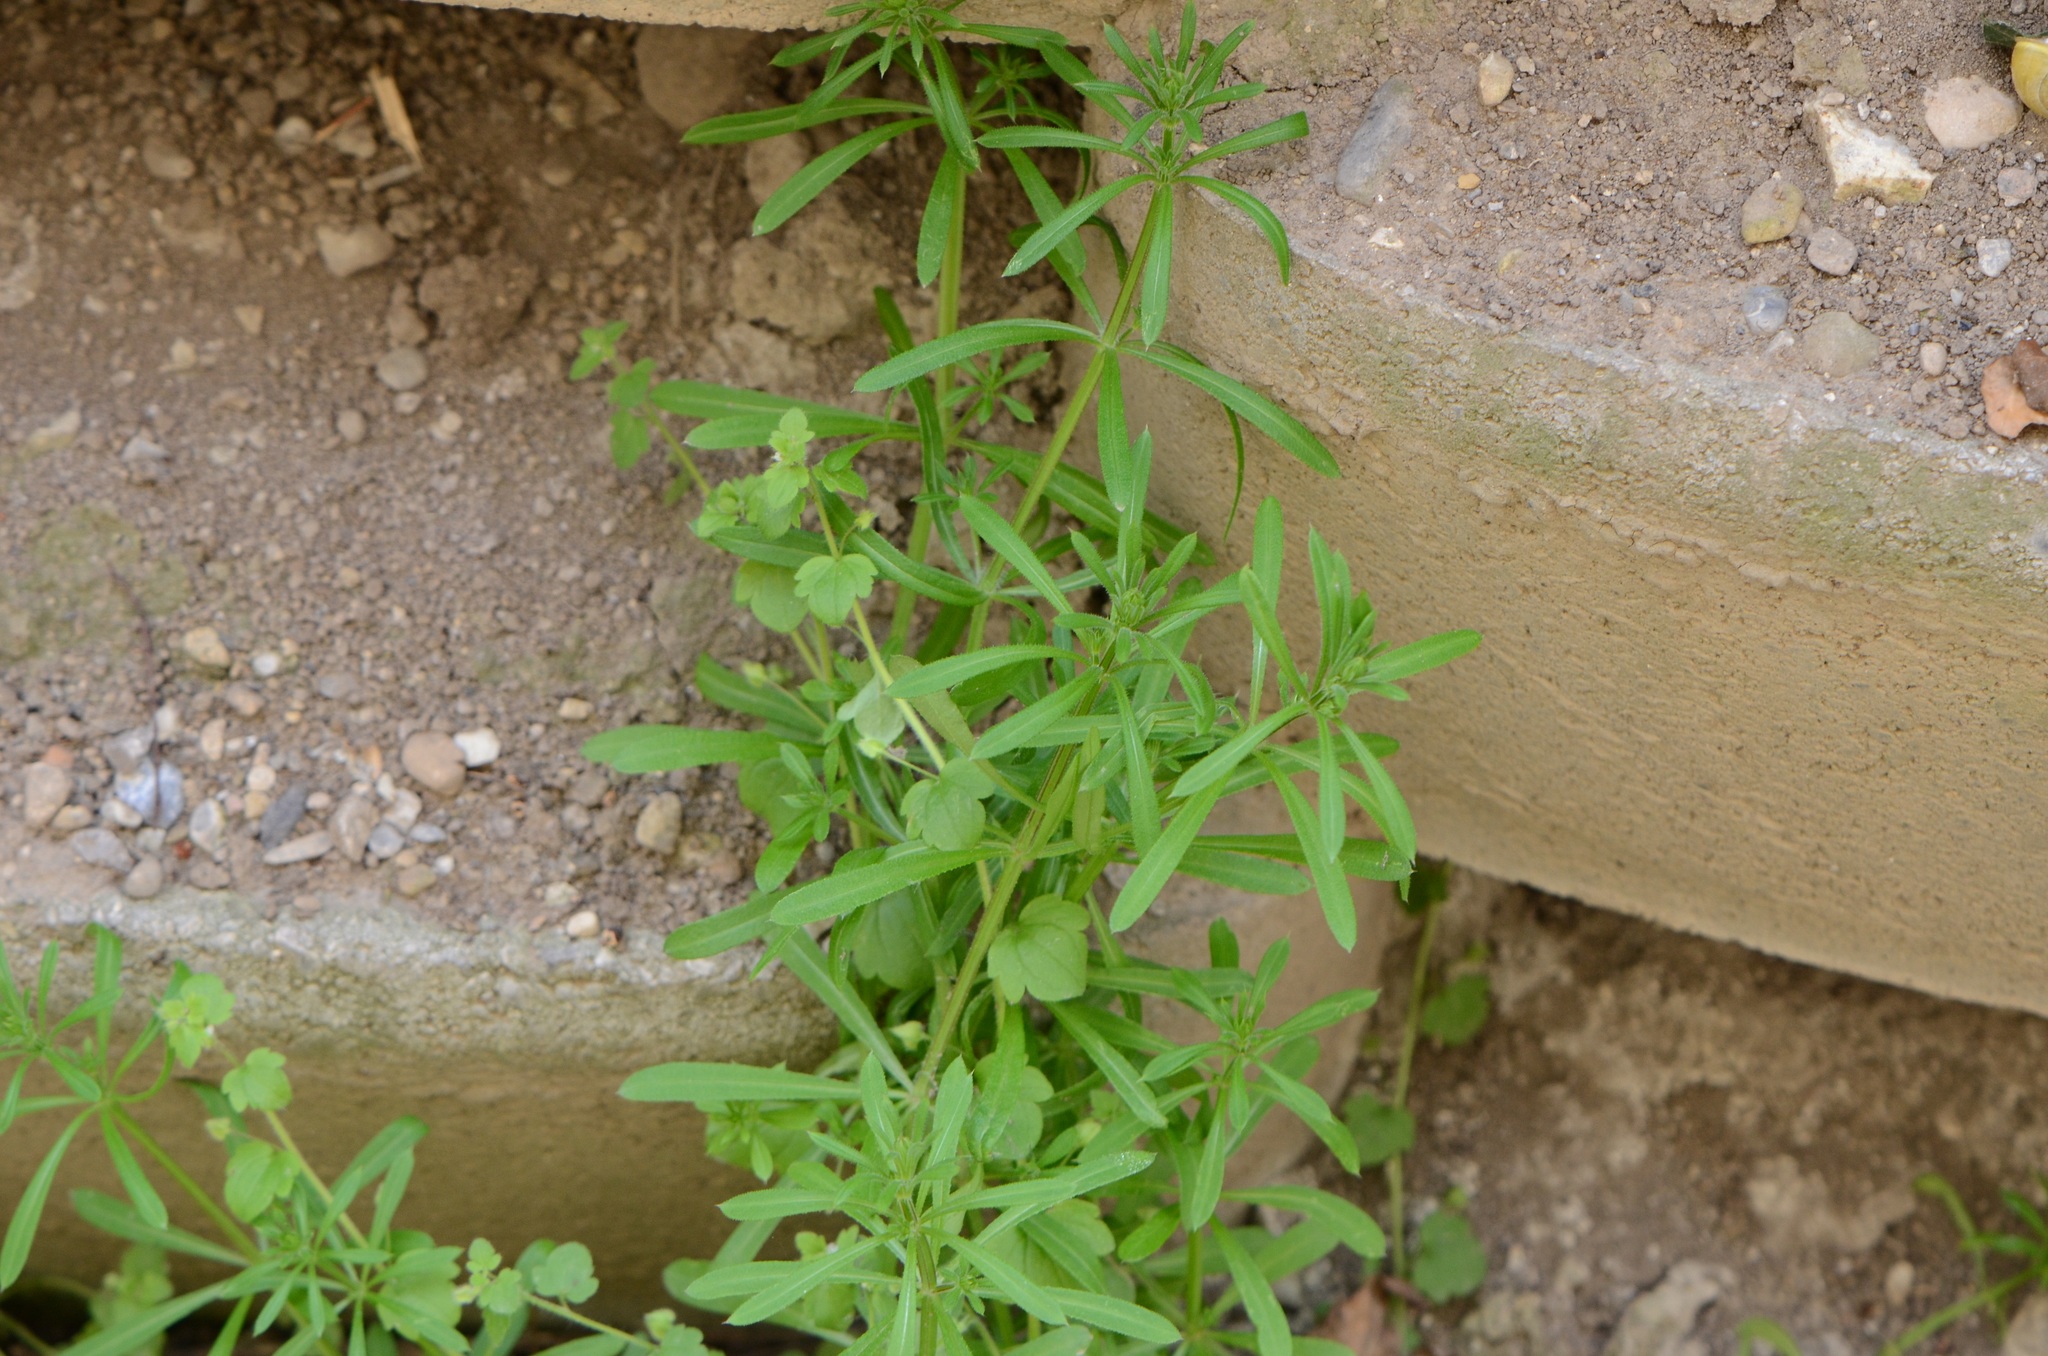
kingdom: Plantae
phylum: Tracheophyta
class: Magnoliopsida
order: Gentianales
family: Rubiaceae
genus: Galium
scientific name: Galium aparine
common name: Cleavers
